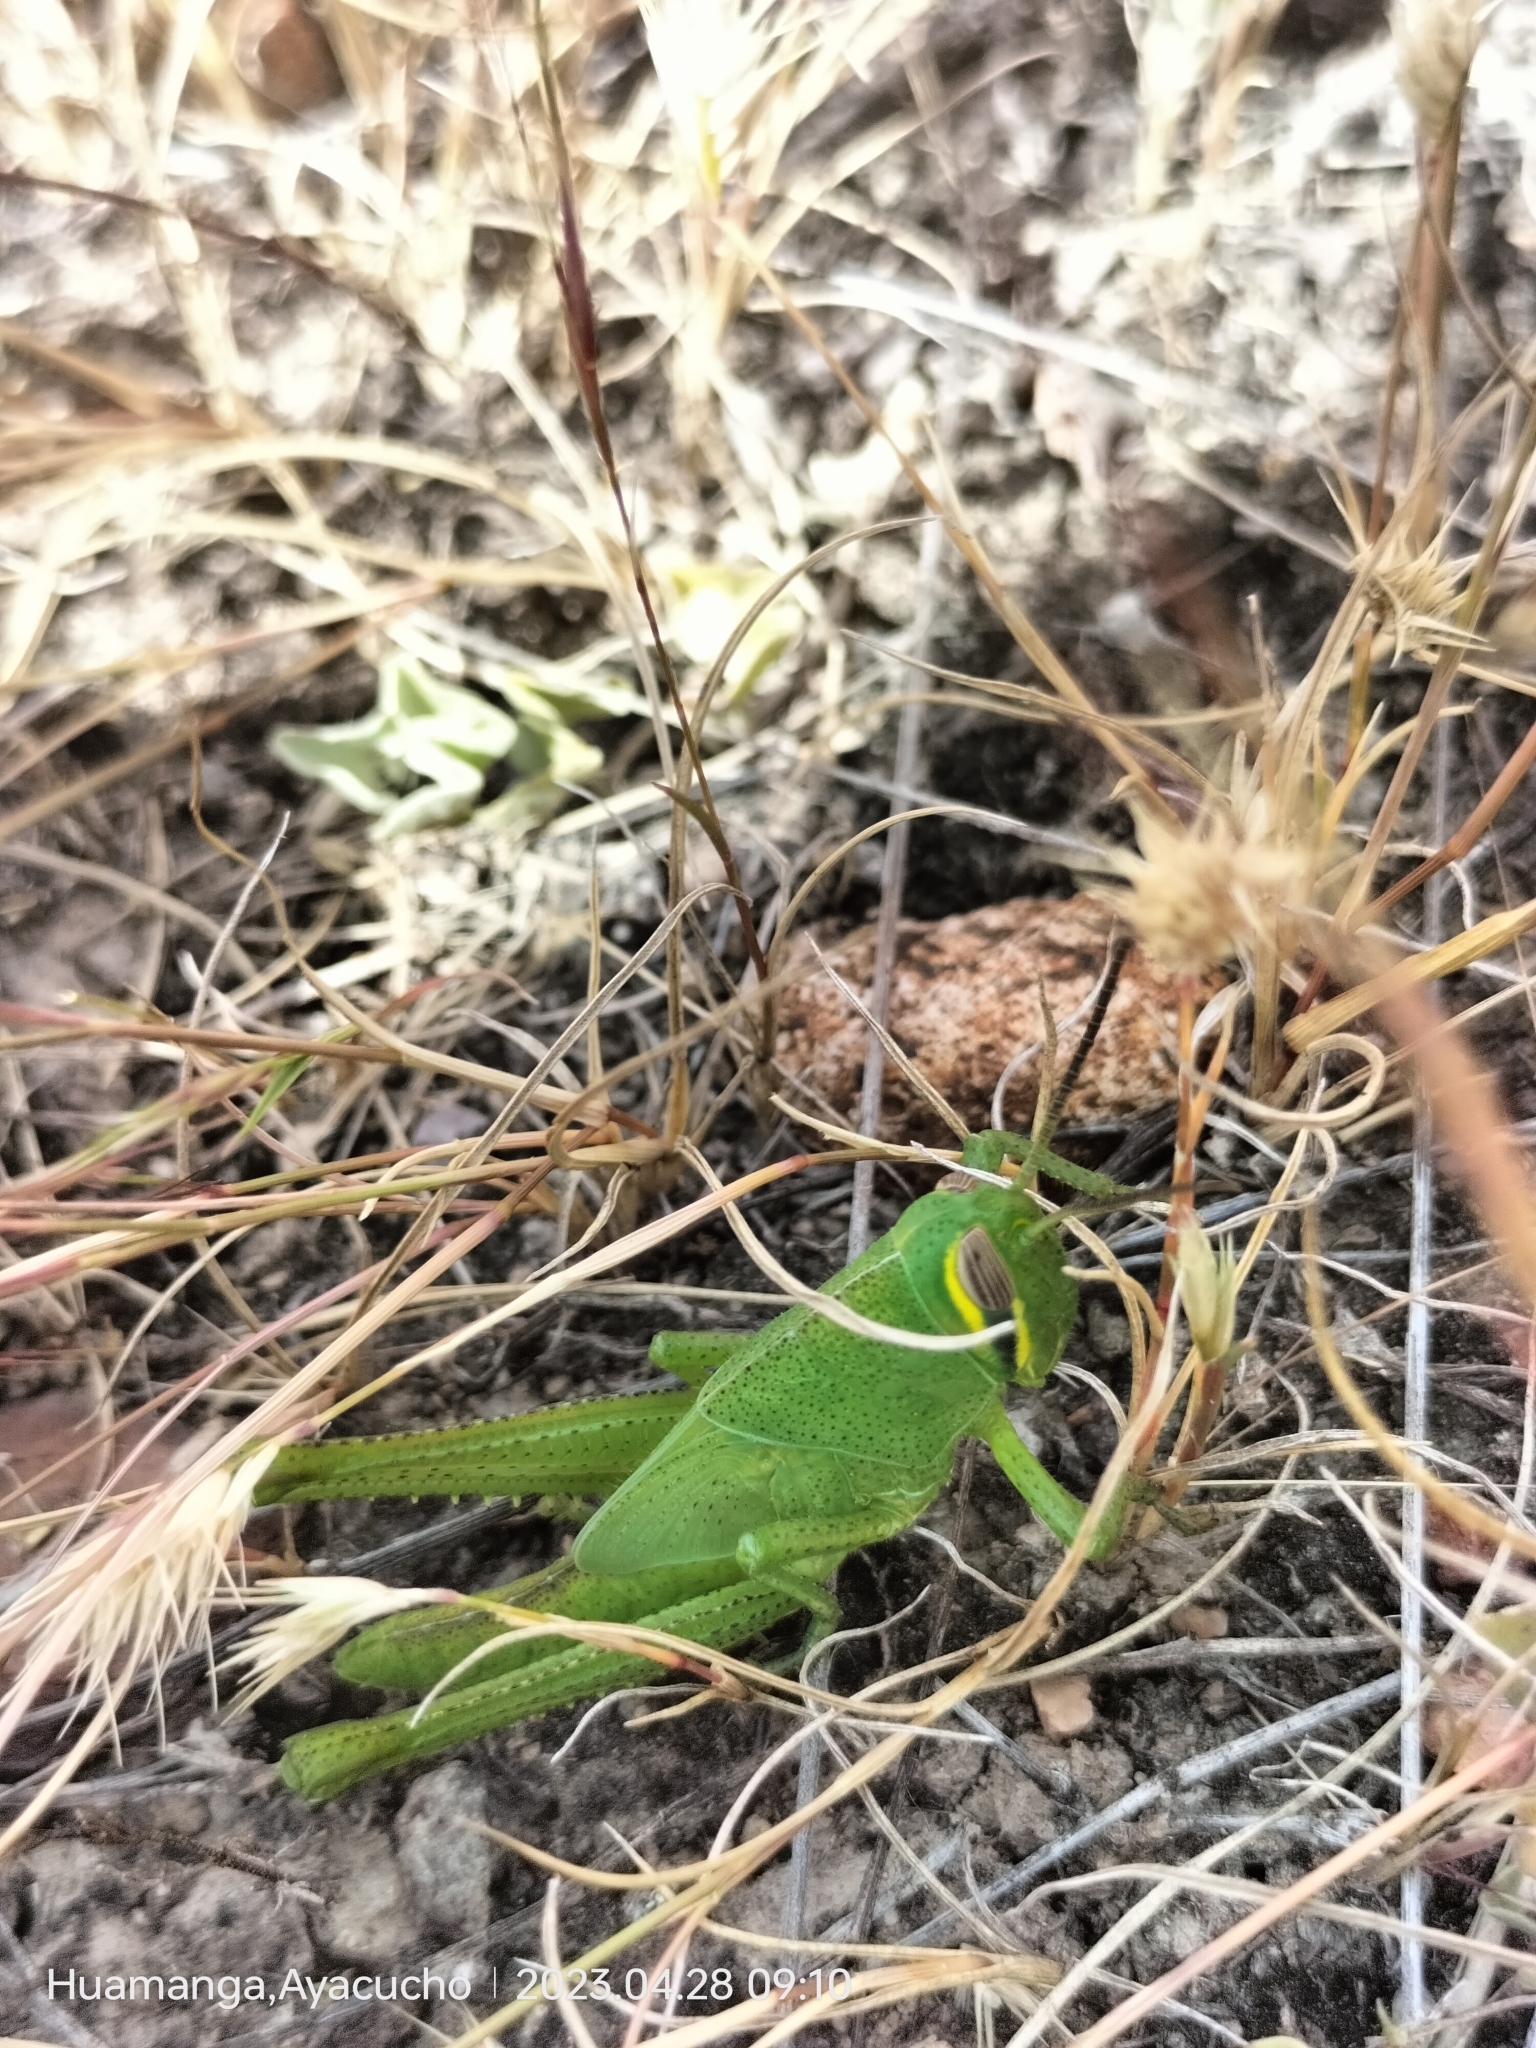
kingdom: Animalia
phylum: Arthropoda
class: Insecta
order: Orthoptera
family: Acrididae
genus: Schistocerca
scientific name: Schistocerca piceifrons
